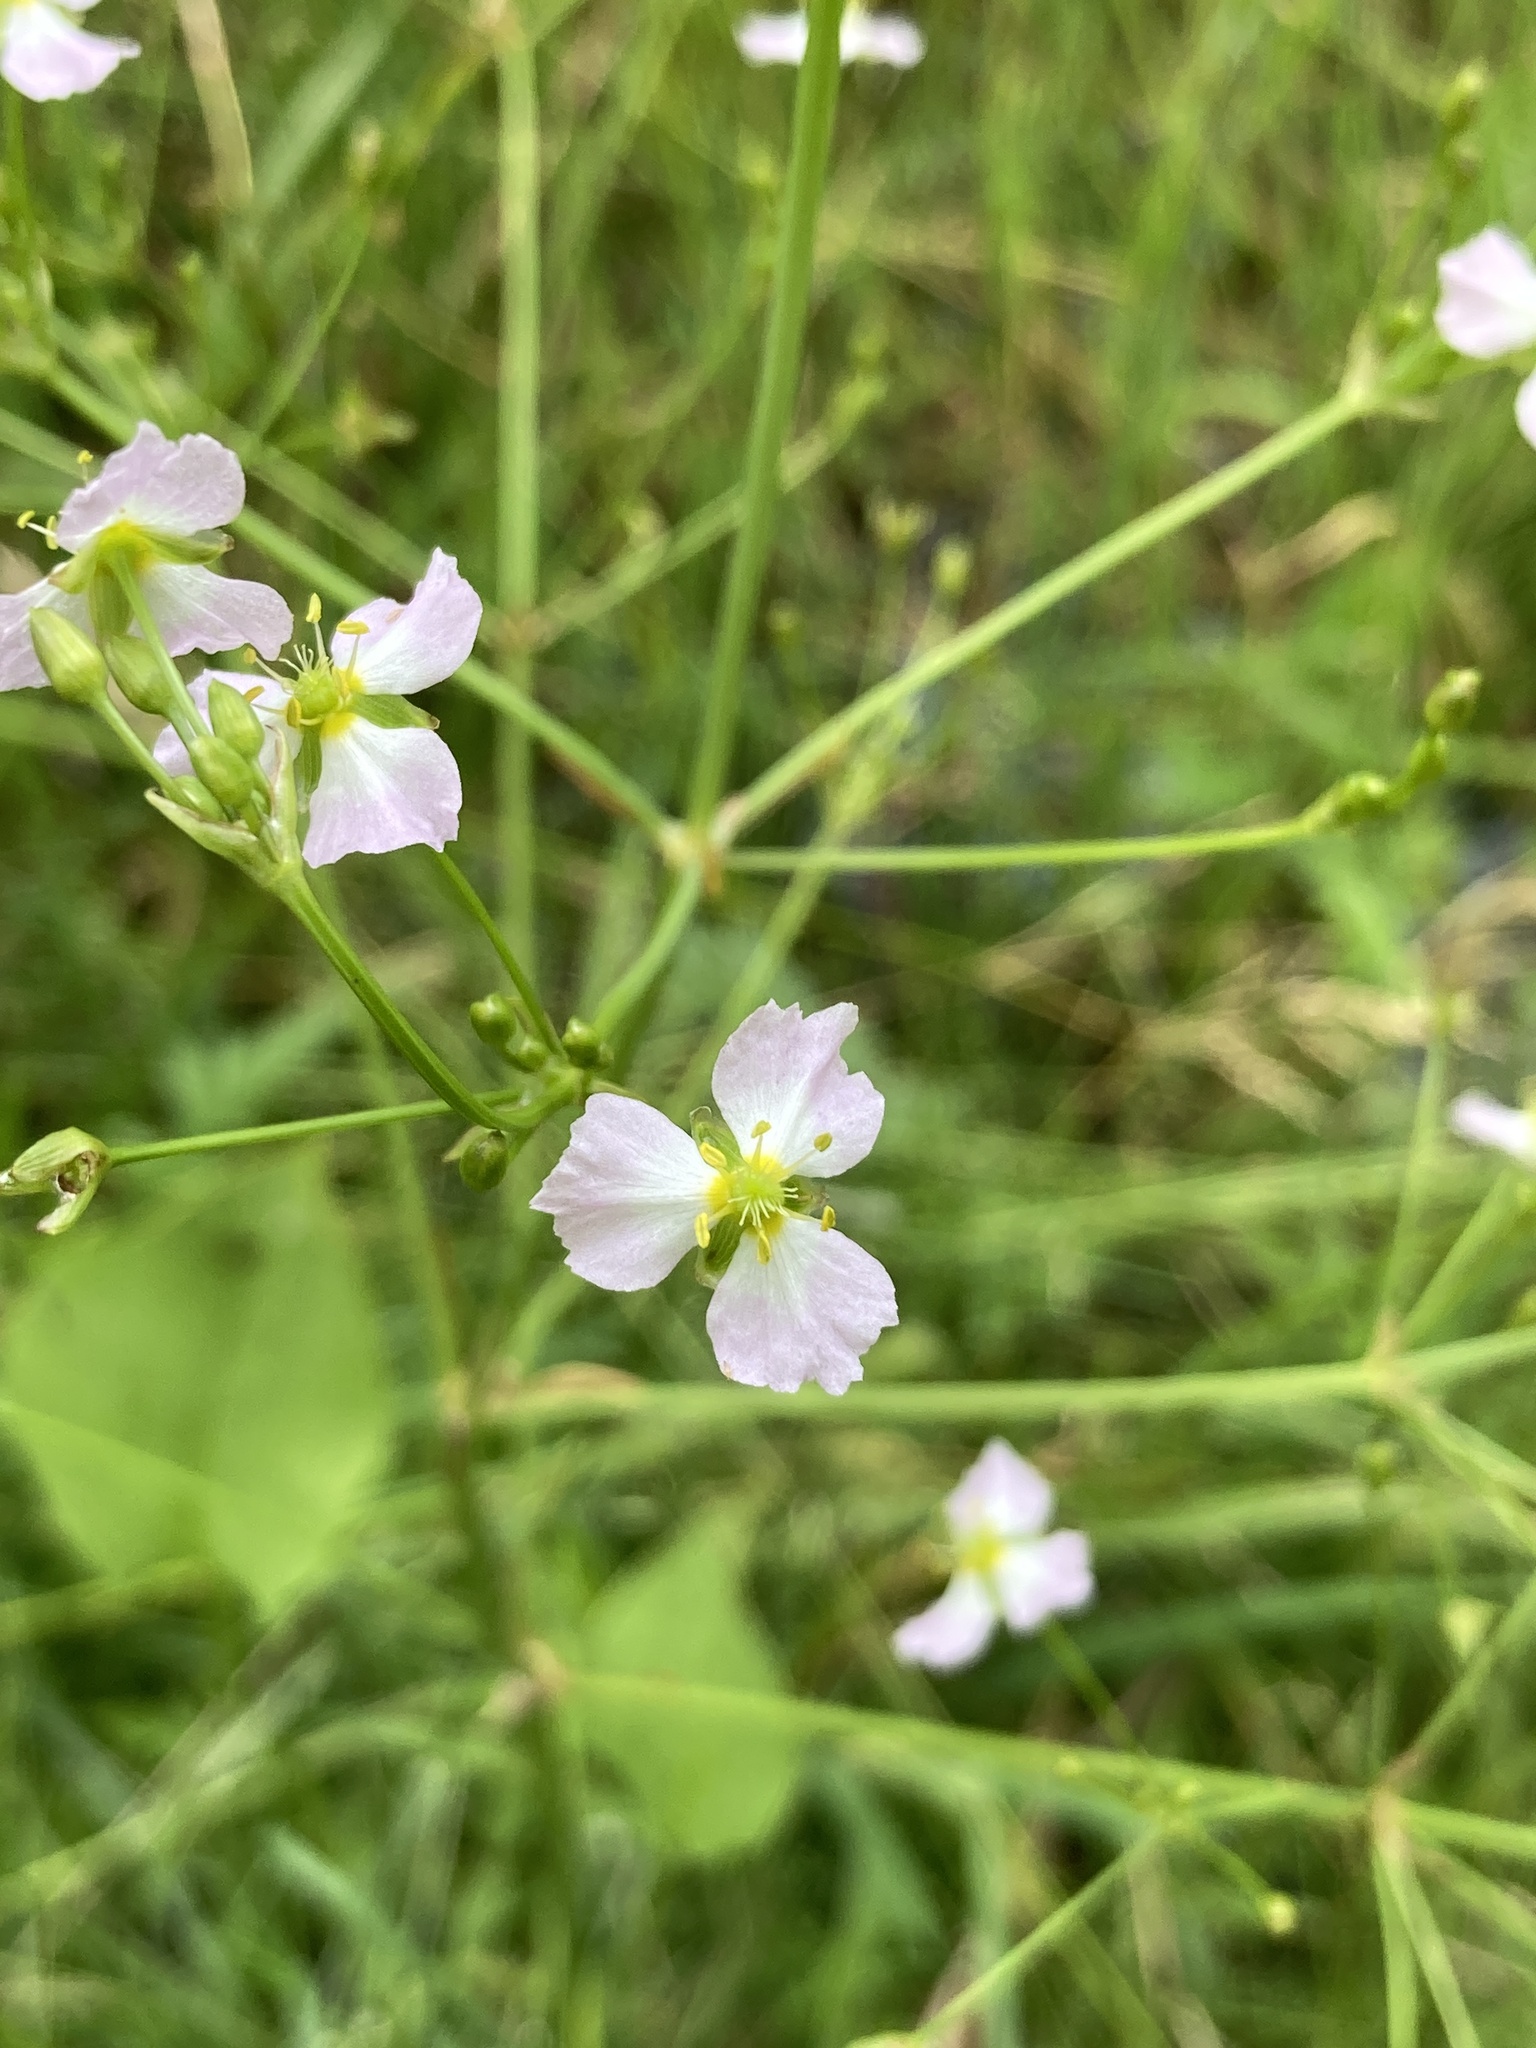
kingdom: Plantae
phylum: Tracheophyta
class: Liliopsida
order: Alismatales
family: Alismataceae
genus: Alisma
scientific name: Alisma plantago-aquatica
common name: Water-plantain
